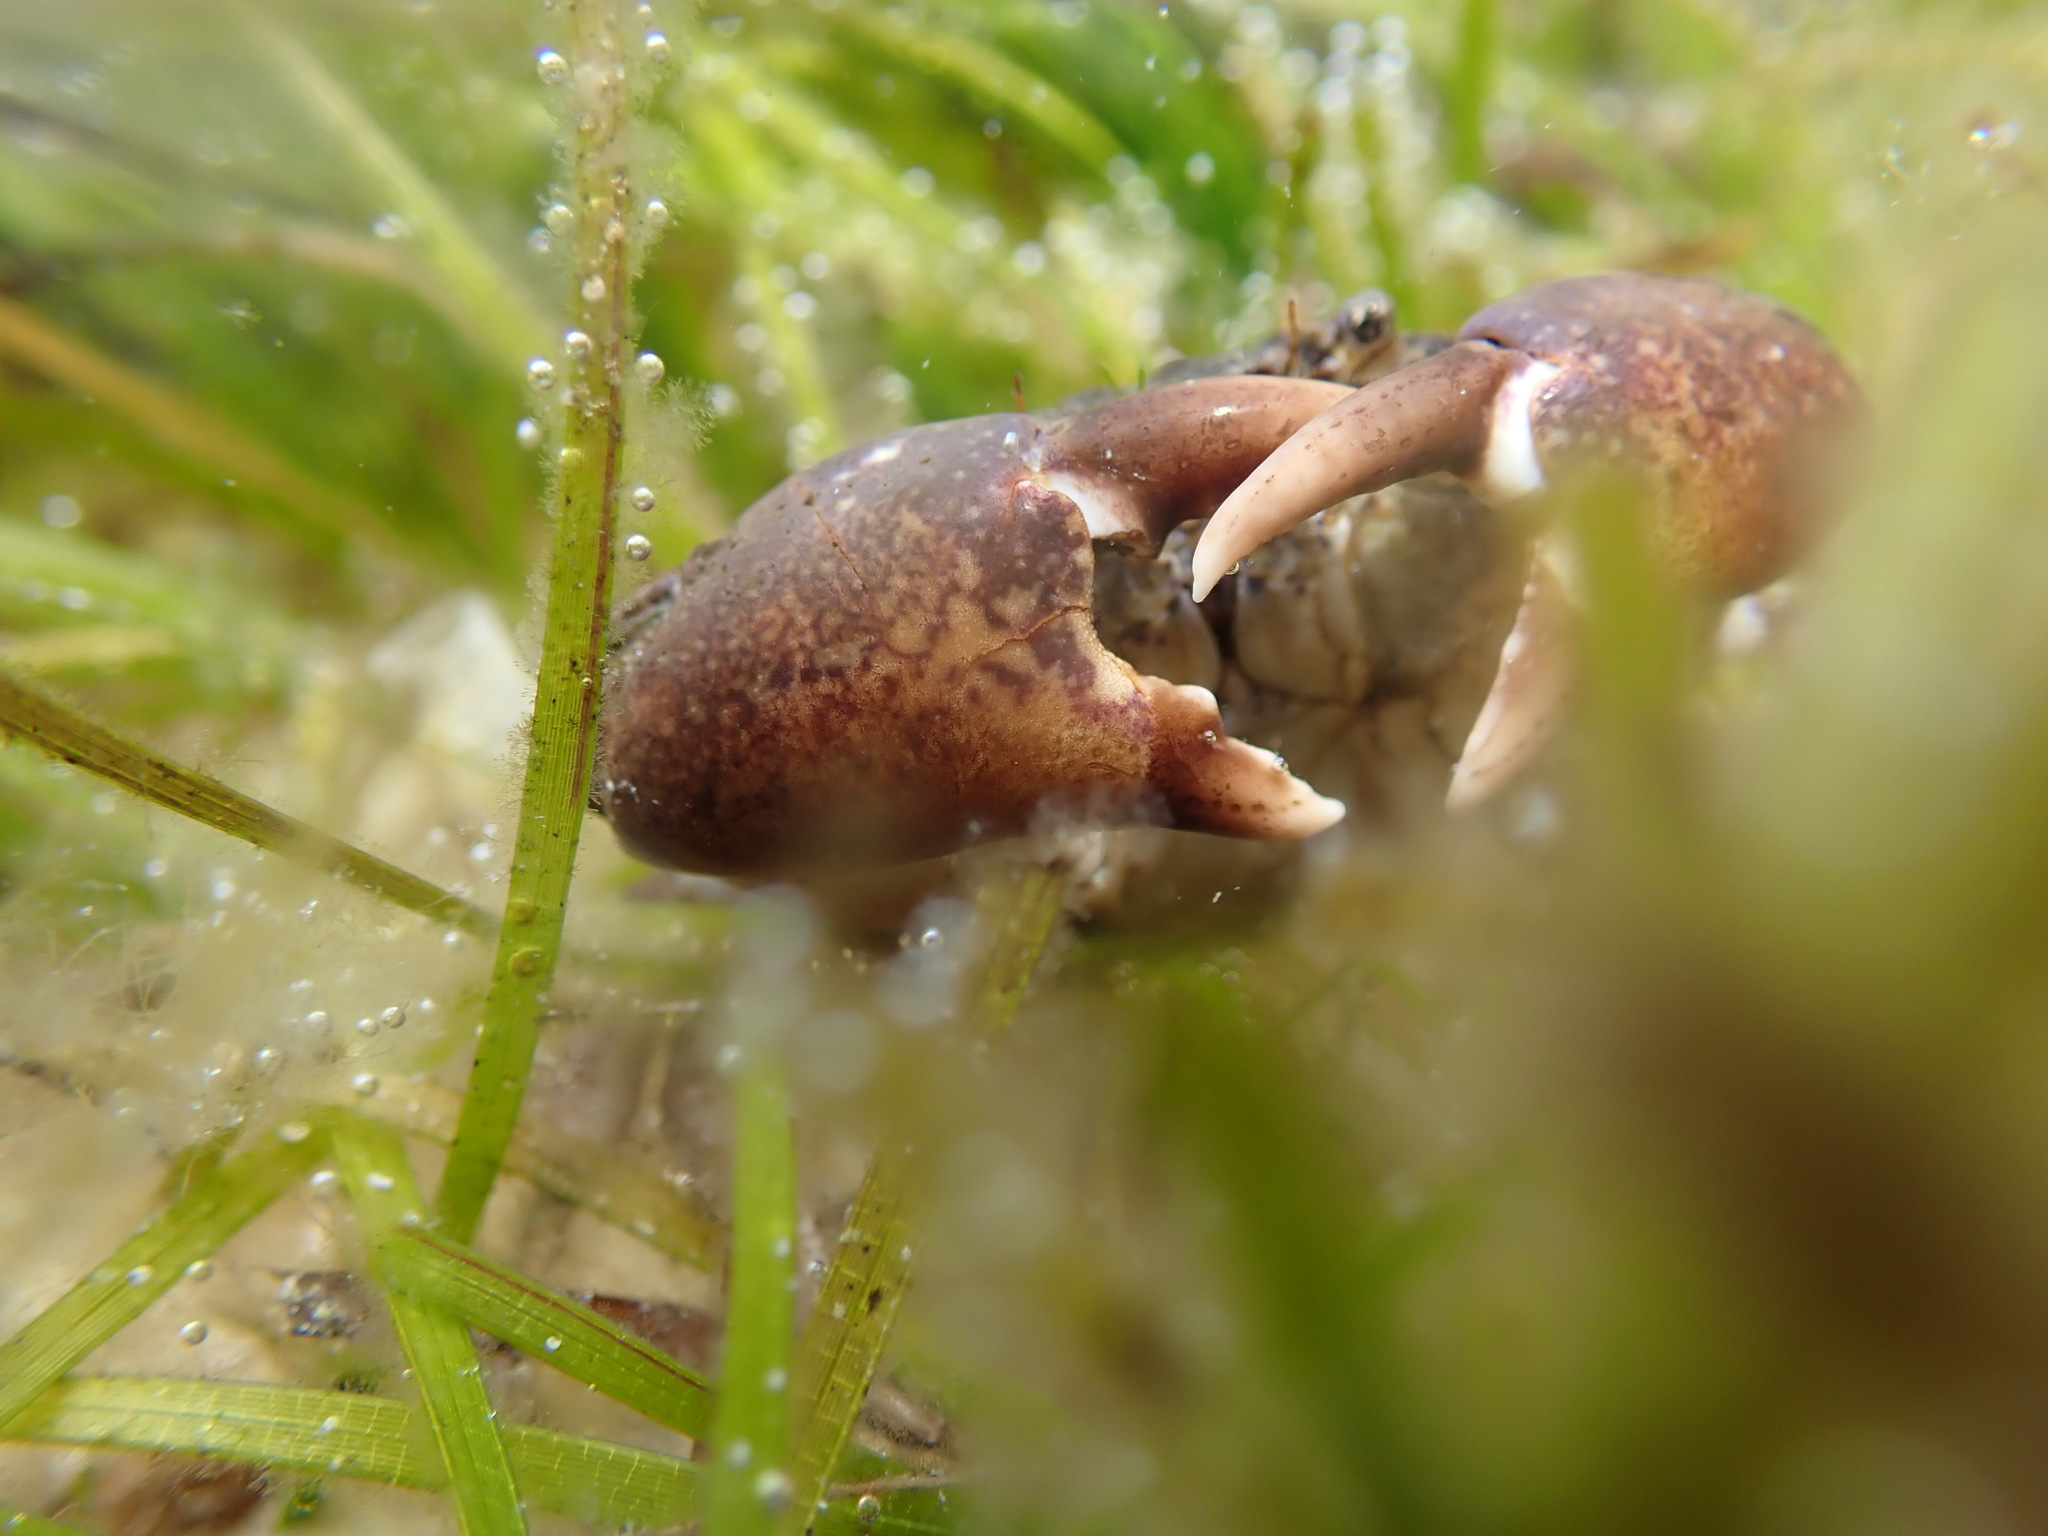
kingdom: Animalia
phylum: Arthropoda
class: Malacostraca
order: Decapoda
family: Pilumnidae
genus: Pilumnopeus
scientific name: Pilumnopeus serratifrons
